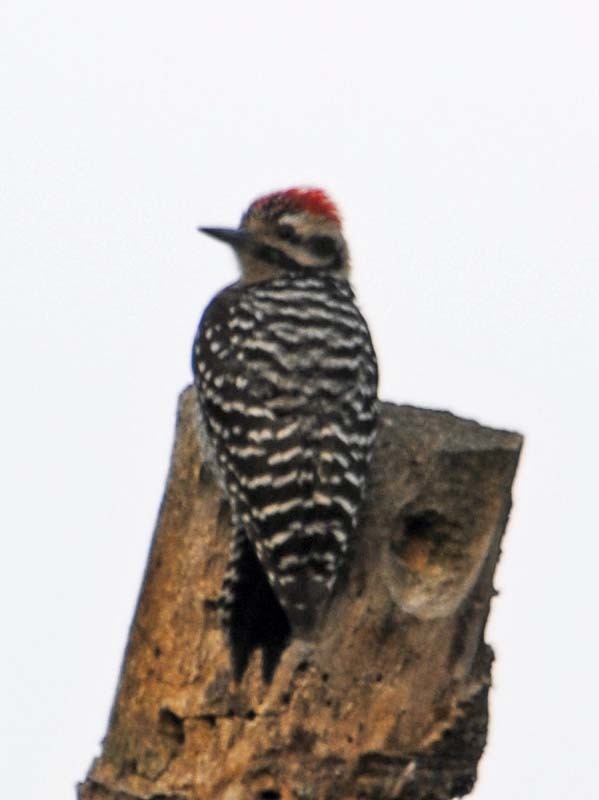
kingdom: Animalia
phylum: Chordata
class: Aves
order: Piciformes
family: Picidae
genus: Dryobates
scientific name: Dryobates scalaris
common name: Ladder-backed woodpecker
